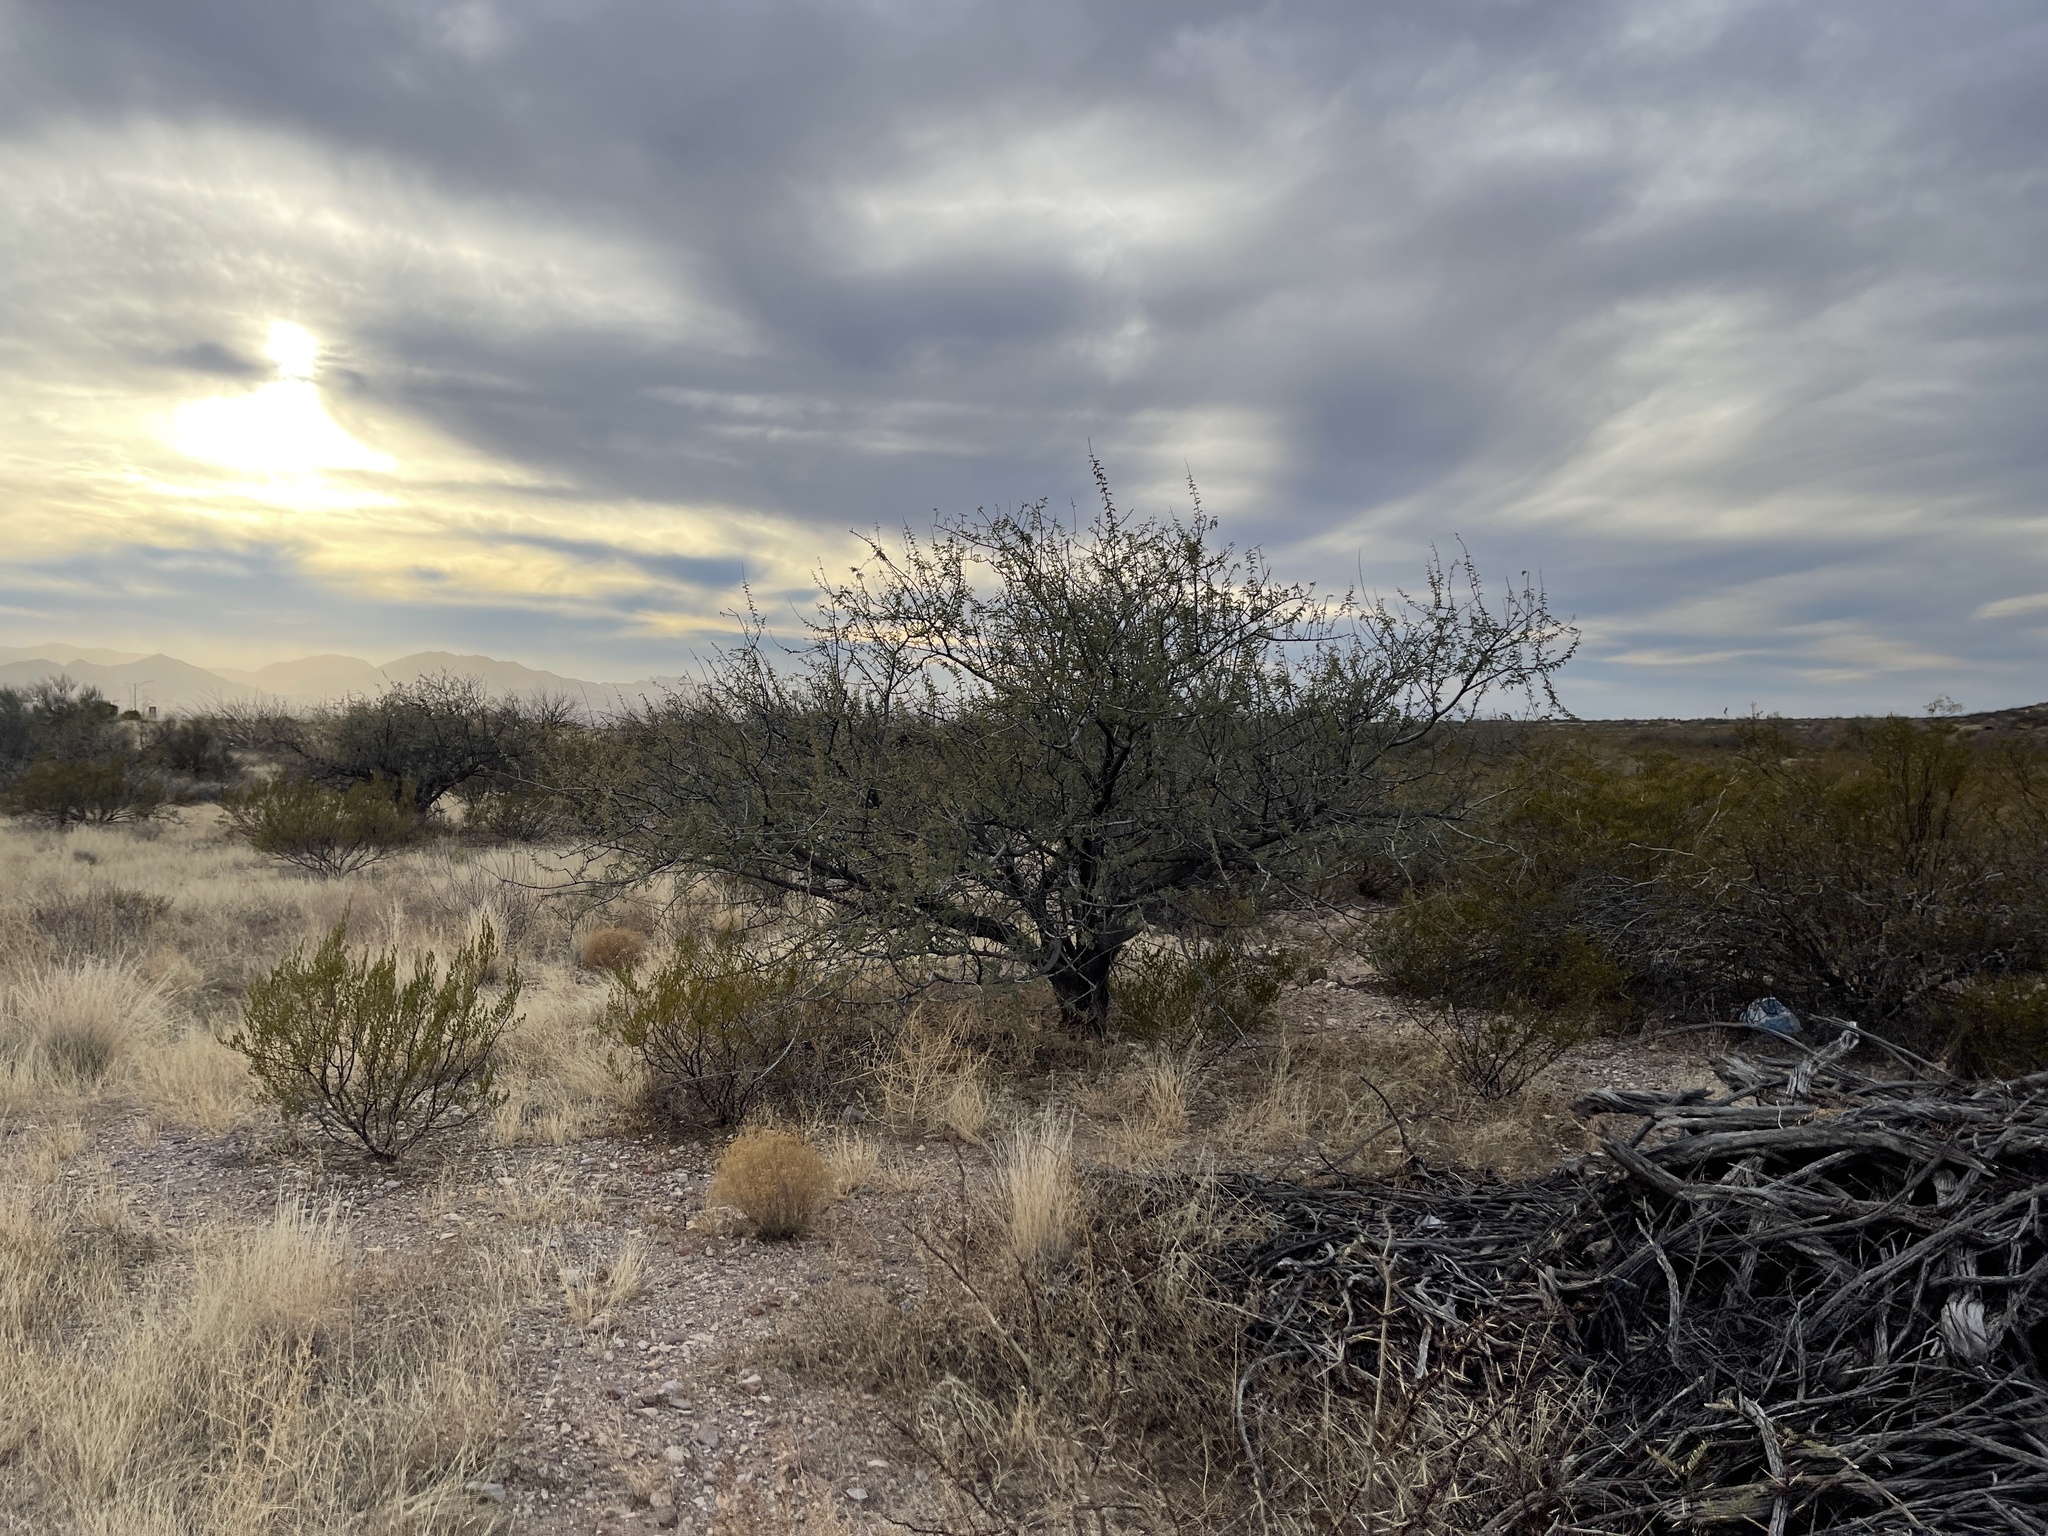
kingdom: Plantae
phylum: Tracheophyta
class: Magnoliopsida
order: Fabales
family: Fabaceae
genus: Mimosa
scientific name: Mimosa aculeaticarpa
